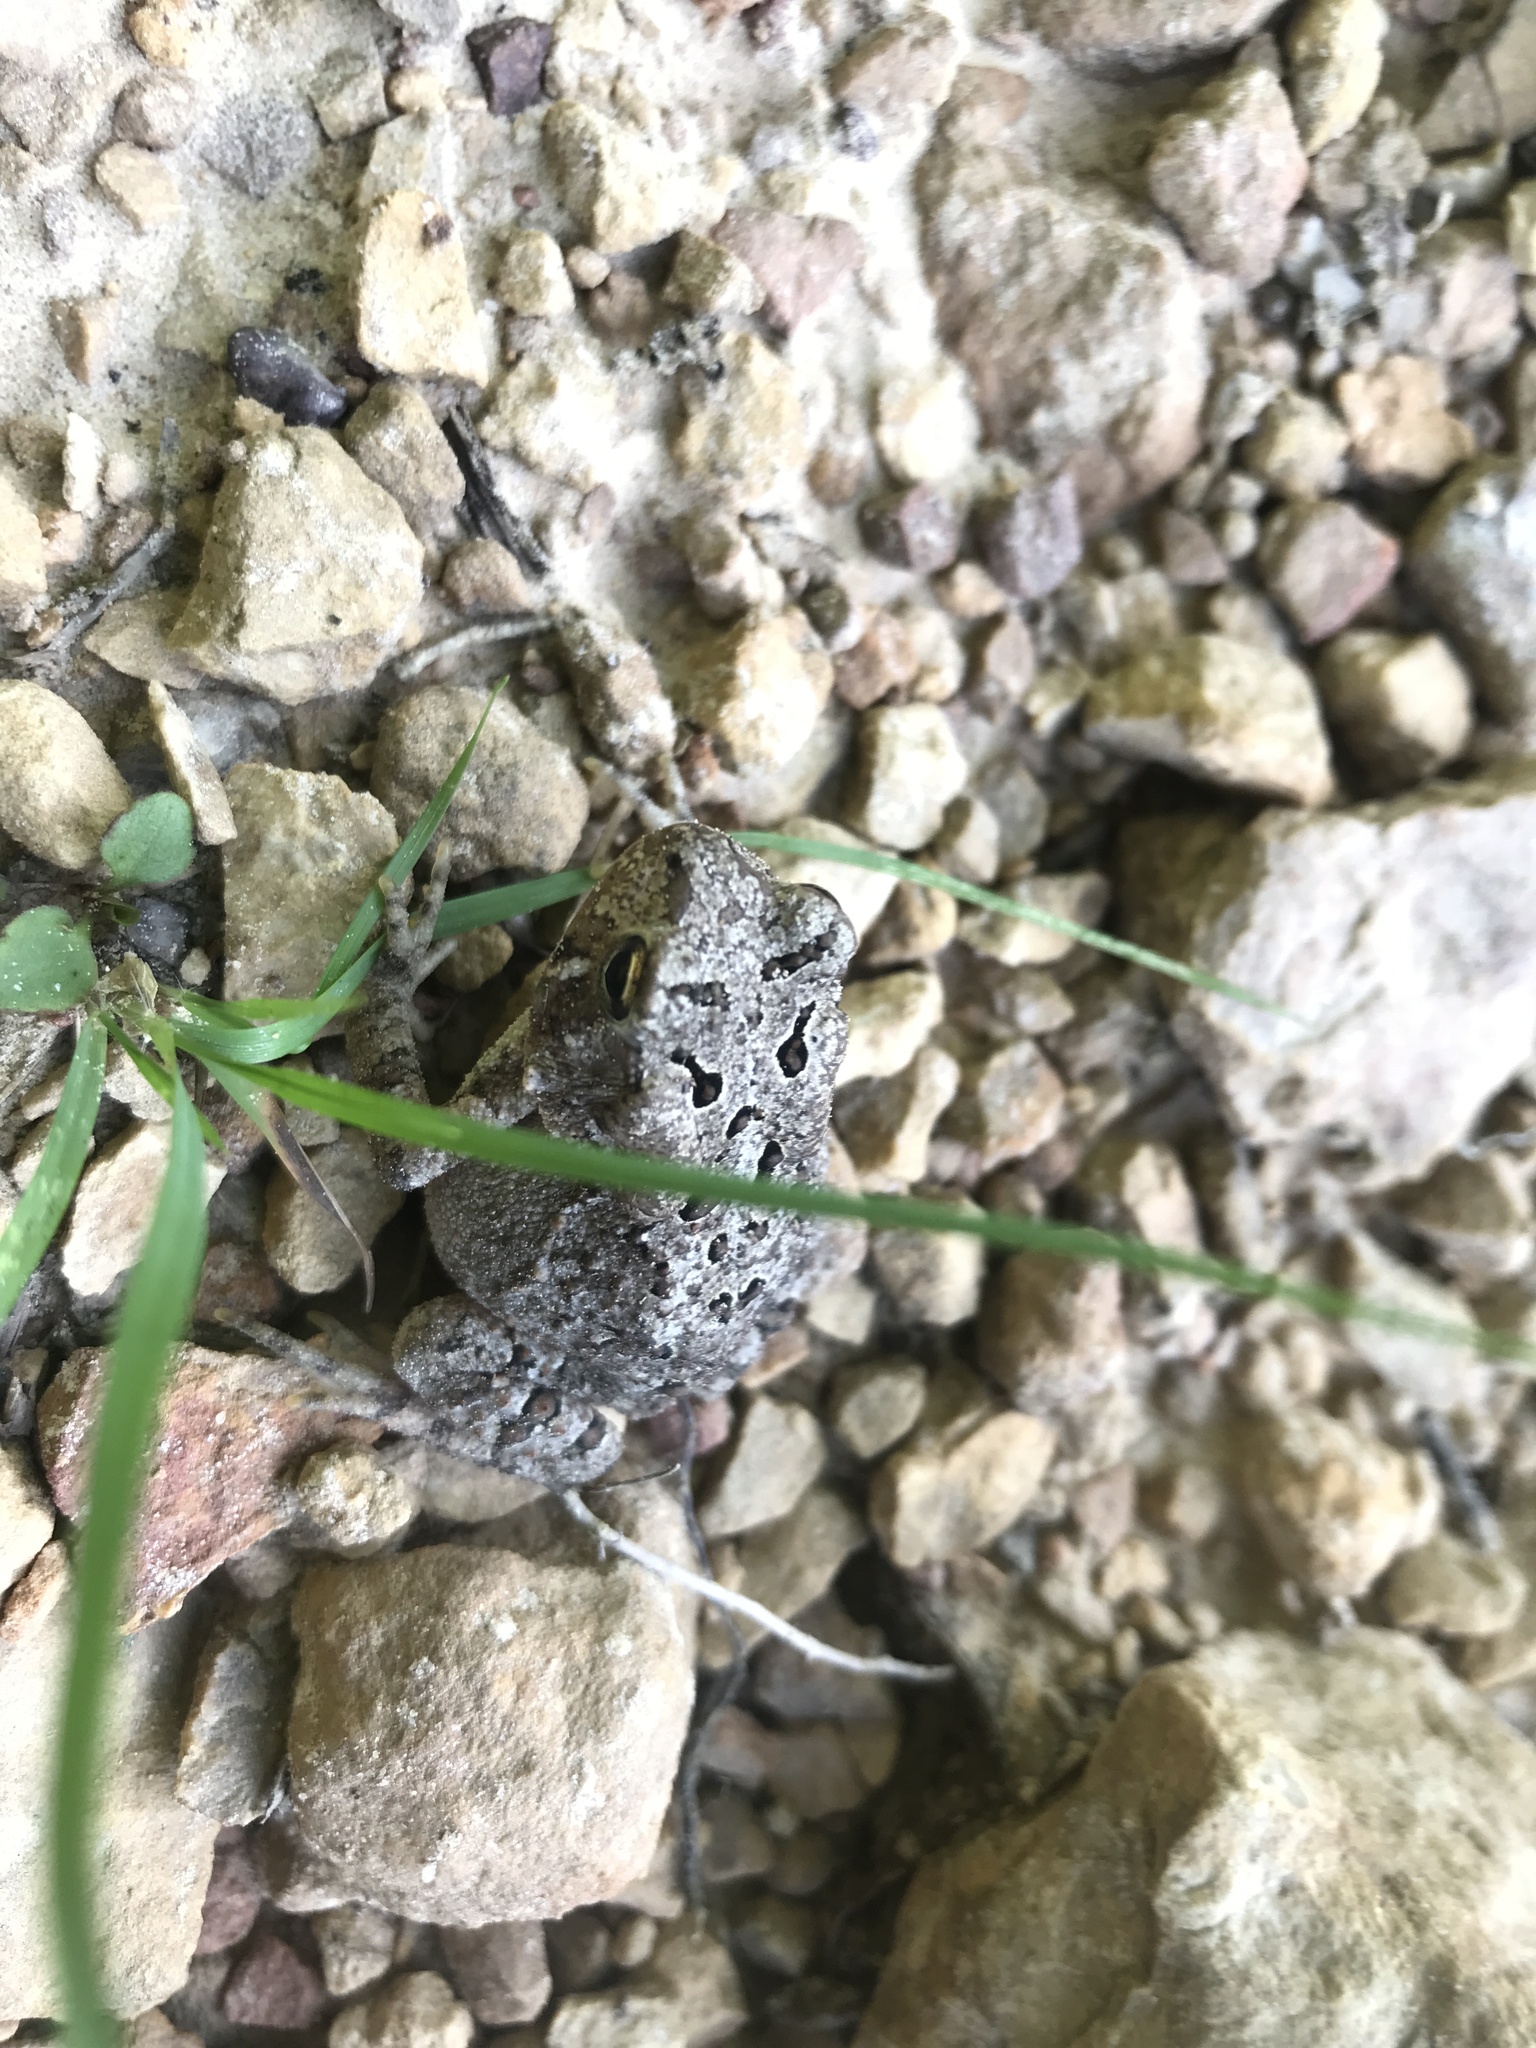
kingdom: Animalia
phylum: Chordata
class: Amphibia
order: Anura
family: Bufonidae
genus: Anaxyrus
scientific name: Anaxyrus americanus
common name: American toad
